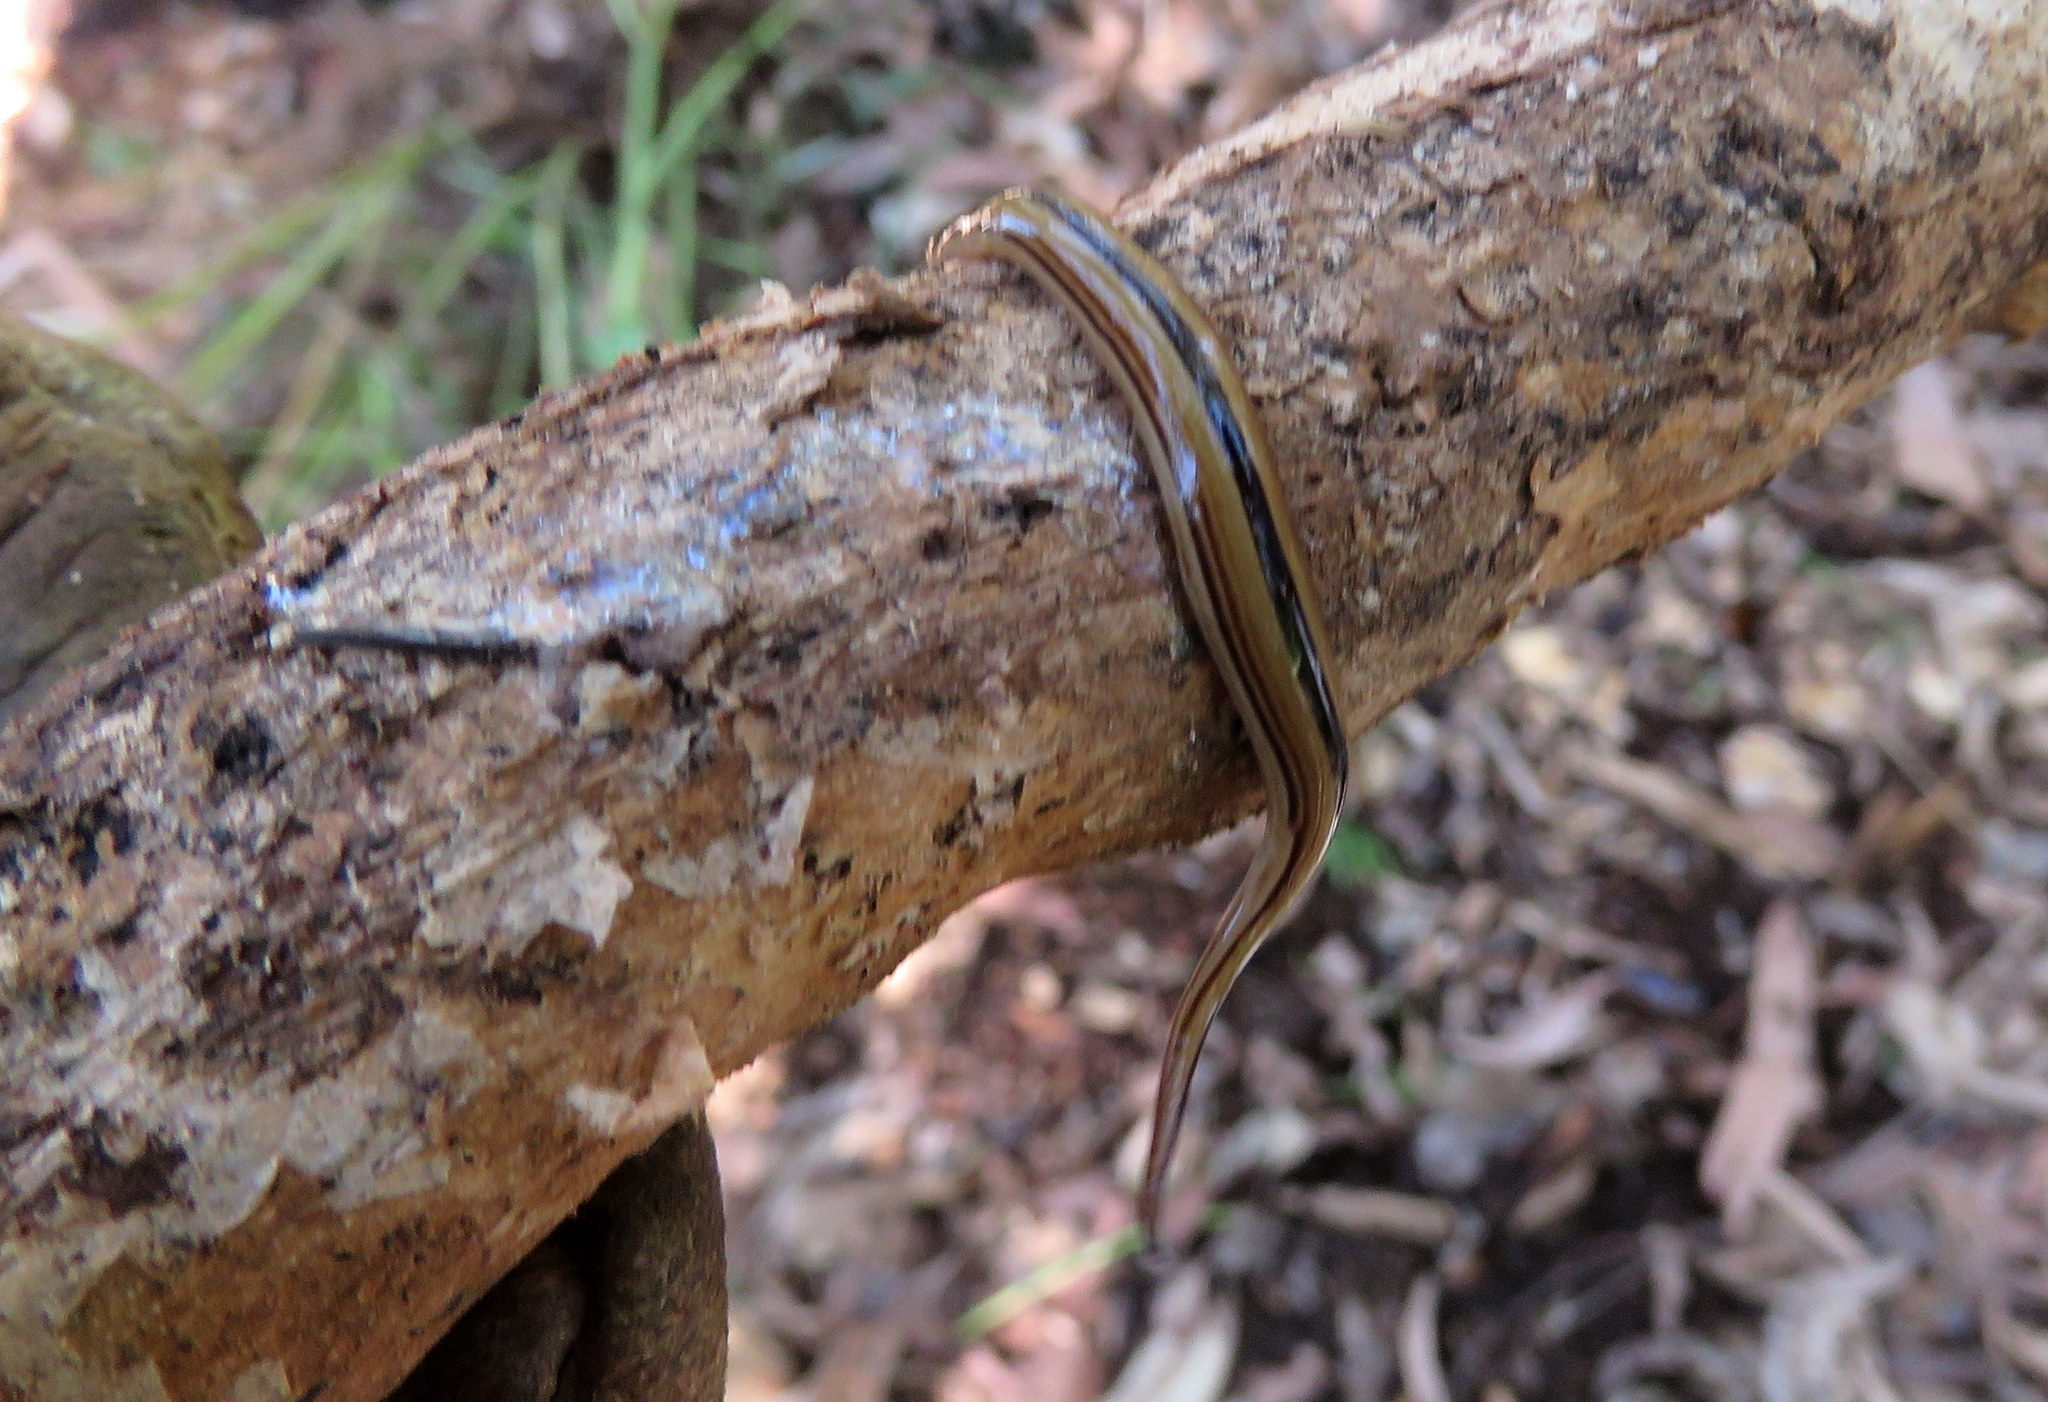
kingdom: Animalia
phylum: Platyhelminthes
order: Tricladida
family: Geoplanidae
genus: Australopacifica
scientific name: Australopacifica regina
